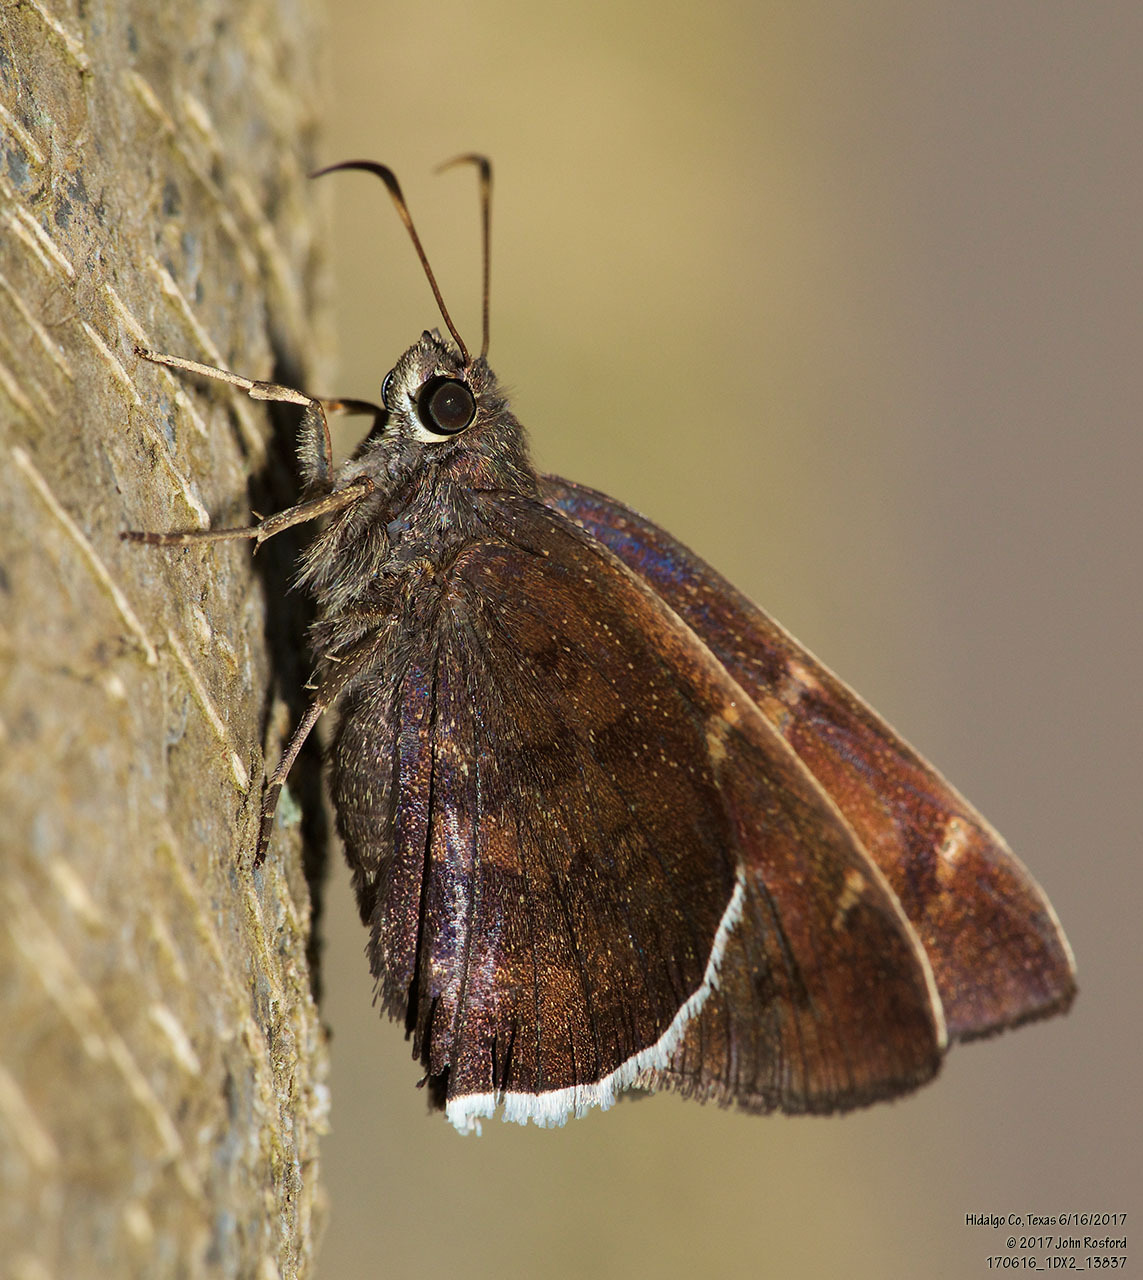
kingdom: Animalia
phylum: Arthropoda
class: Insecta
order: Lepidoptera
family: Hesperiidae
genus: Achalarus
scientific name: Achalarus Murgaria albociliatus
